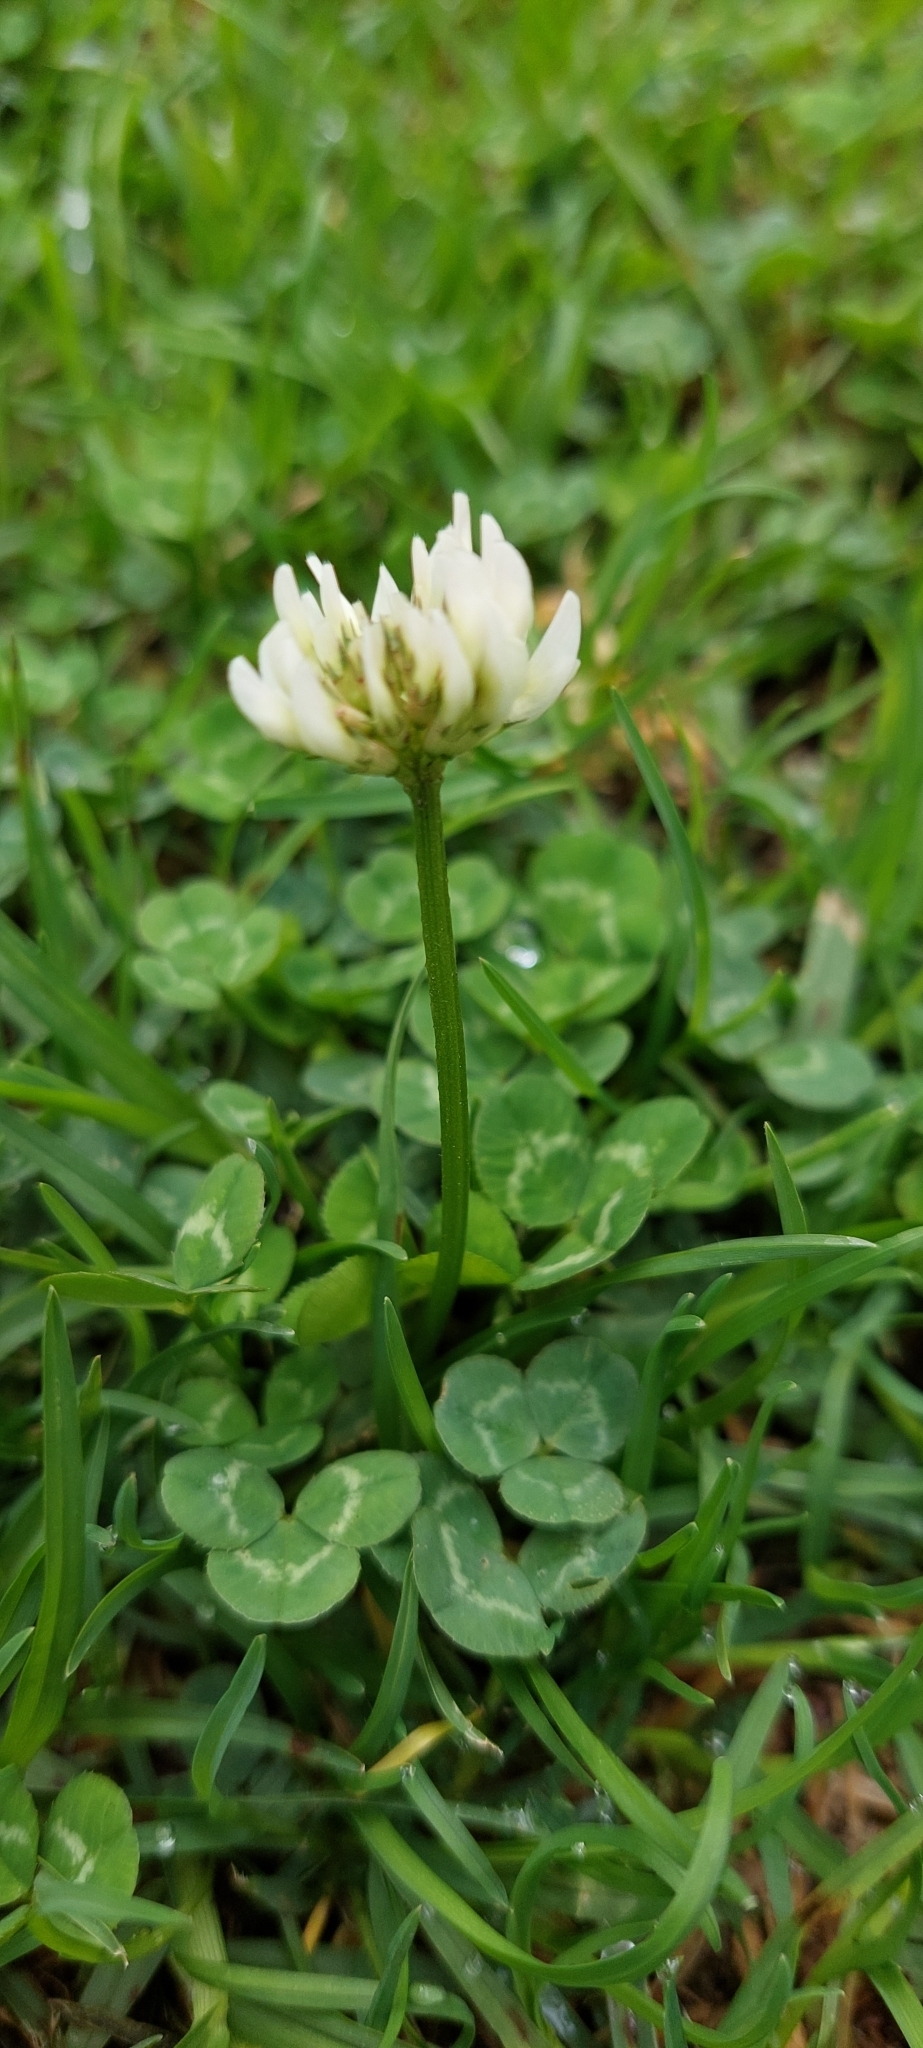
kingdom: Plantae
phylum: Tracheophyta
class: Magnoliopsida
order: Fabales
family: Fabaceae
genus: Trifolium
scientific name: Trifolium repens
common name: White clover
